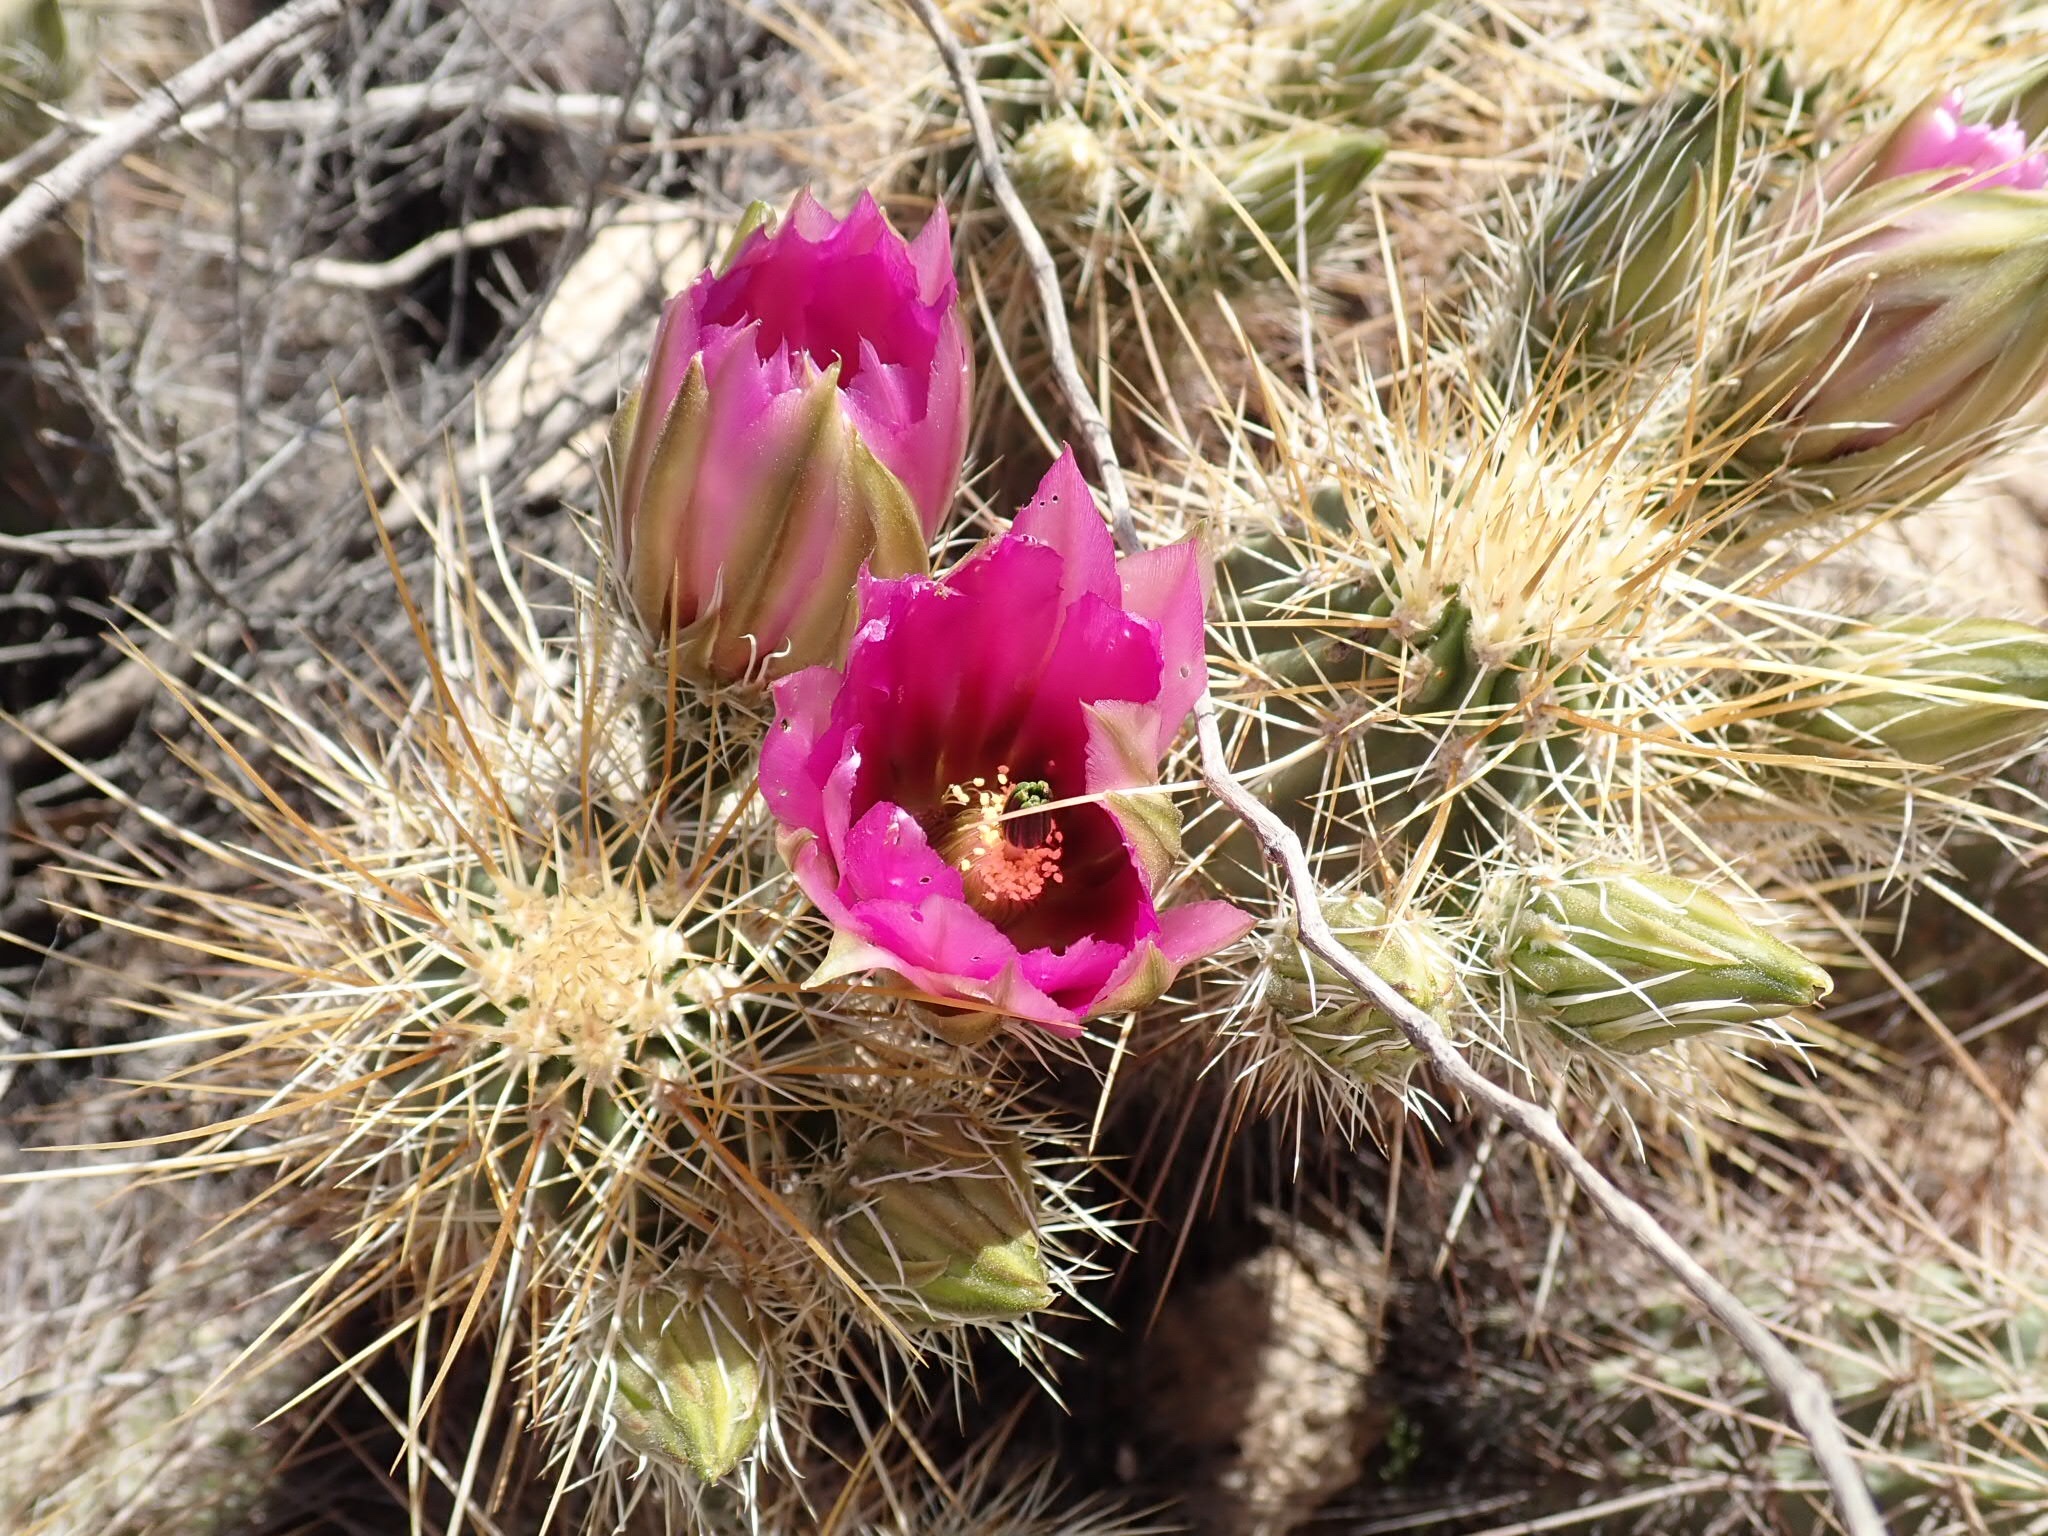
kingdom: Plantae
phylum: Tracheophyta
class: Magnoliopsida
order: Caryophyllales
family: Cactaceae
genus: Echinocereus
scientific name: Echinocereus engelmannii
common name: Engelmann's hedgehog cactus
